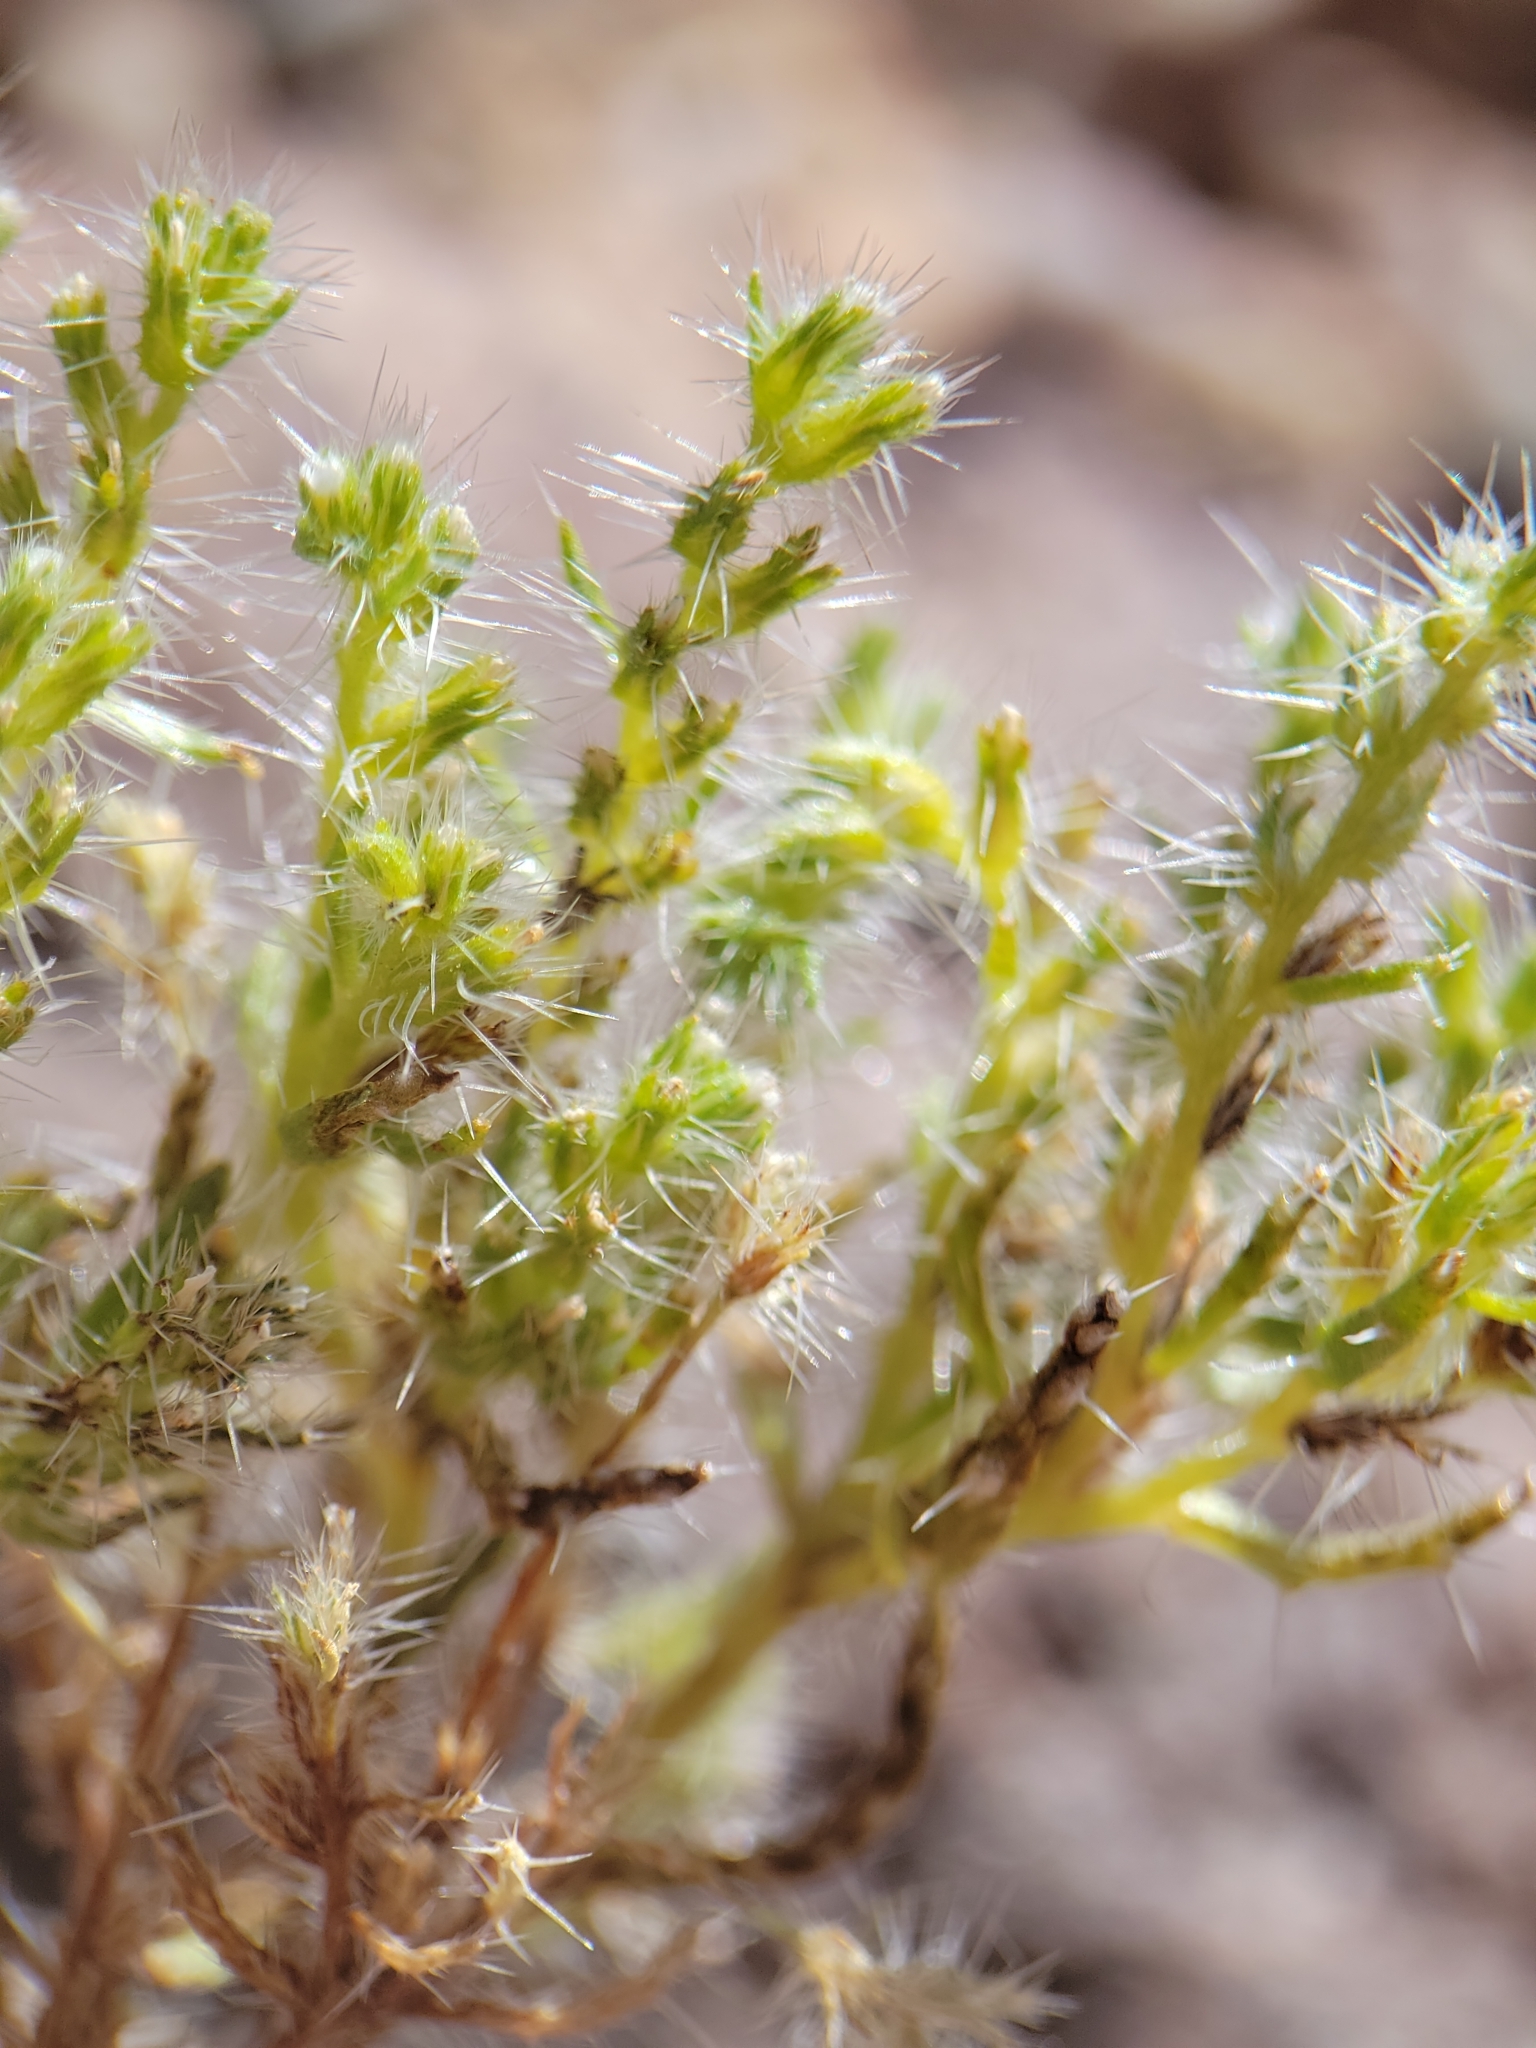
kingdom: Plantae
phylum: Tracheophyta
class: Magnoliopsida
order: Boraginales
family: Boraginaceae
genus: Cryptantha
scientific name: Cryptantha maritima
